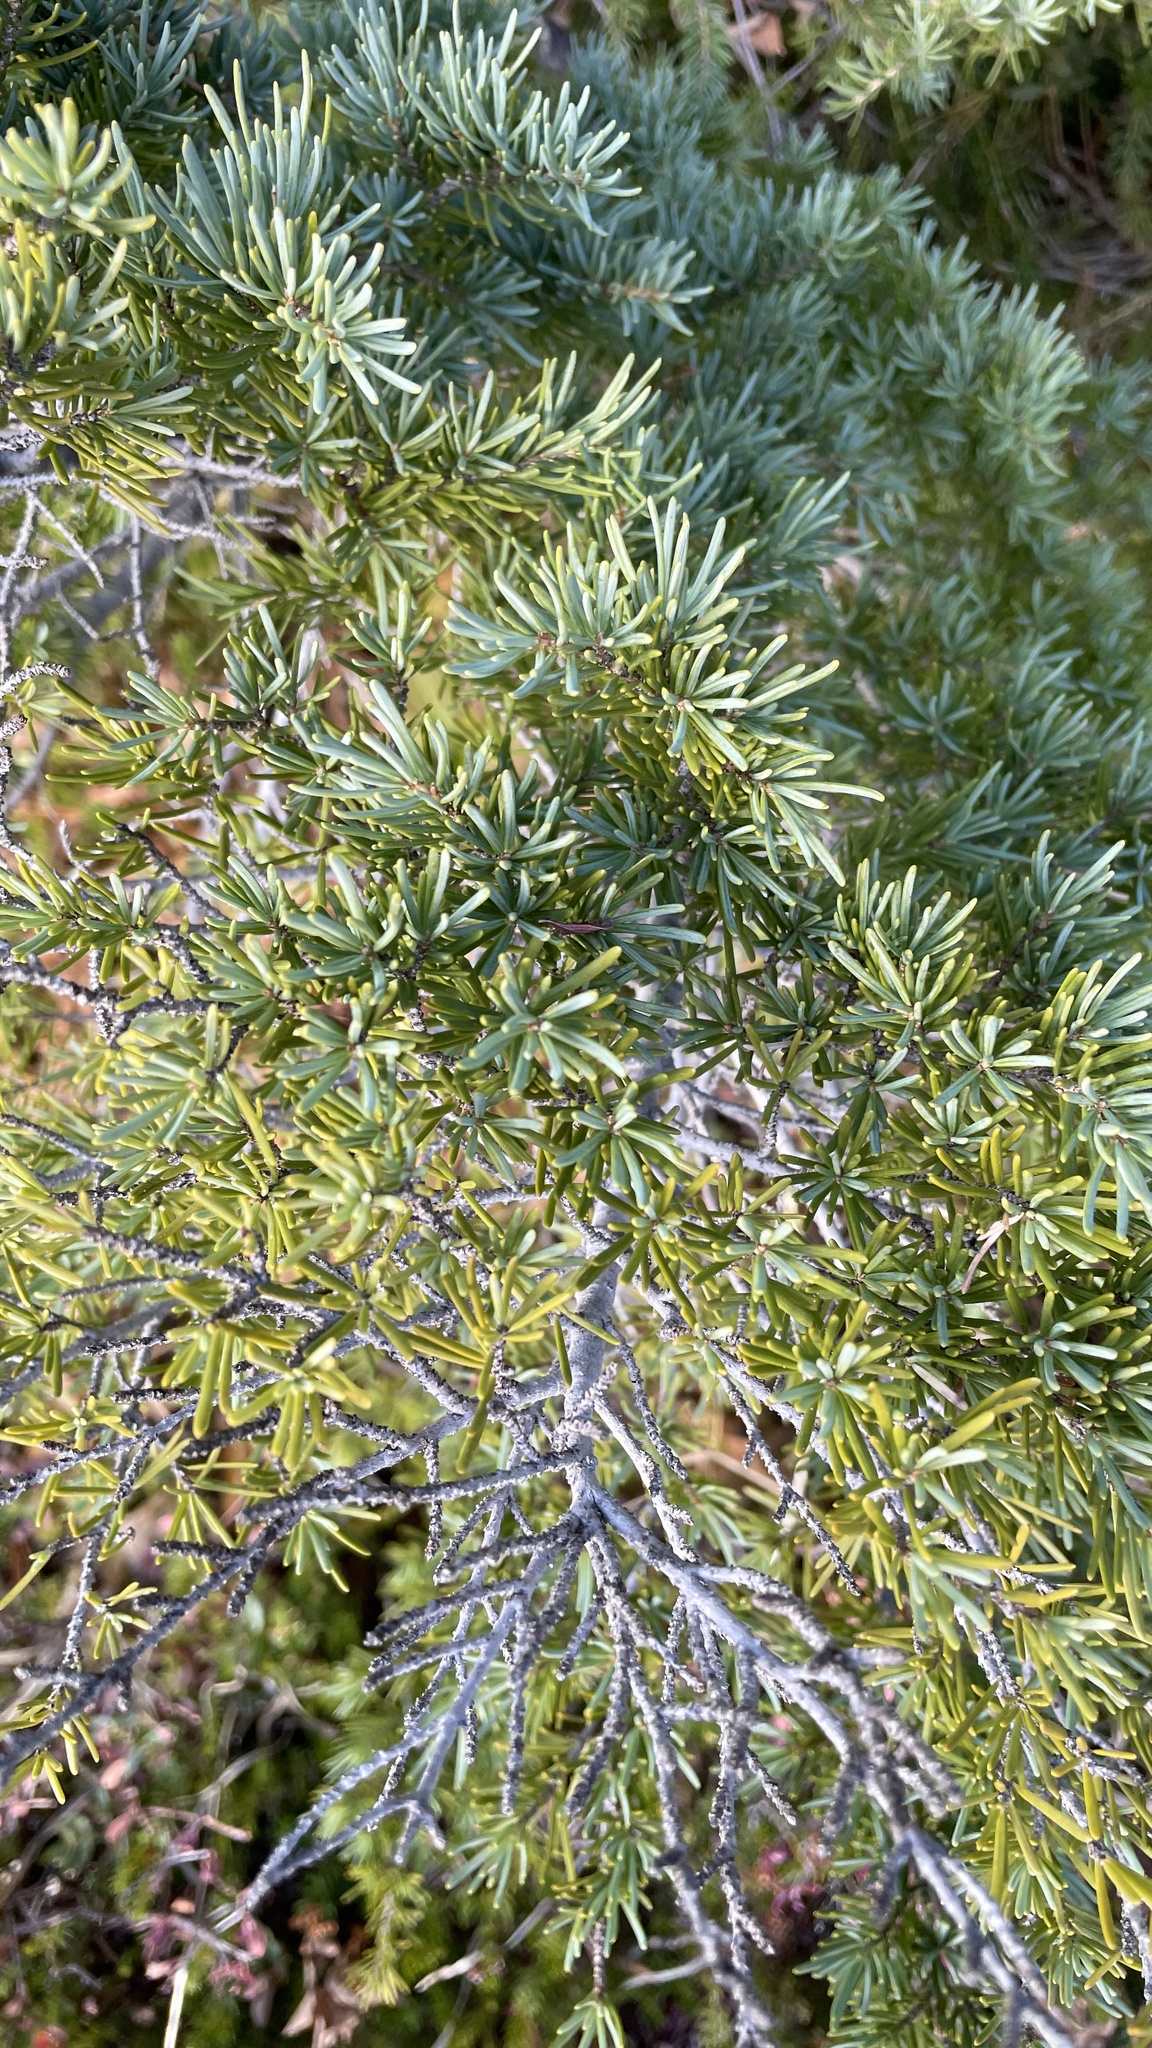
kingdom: Plantae
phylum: Tracheophyta
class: Pinopsida
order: Pinales
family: Pinaceae
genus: Tsuga
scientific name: Tsuga mertensiana
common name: Mountain hemlock
